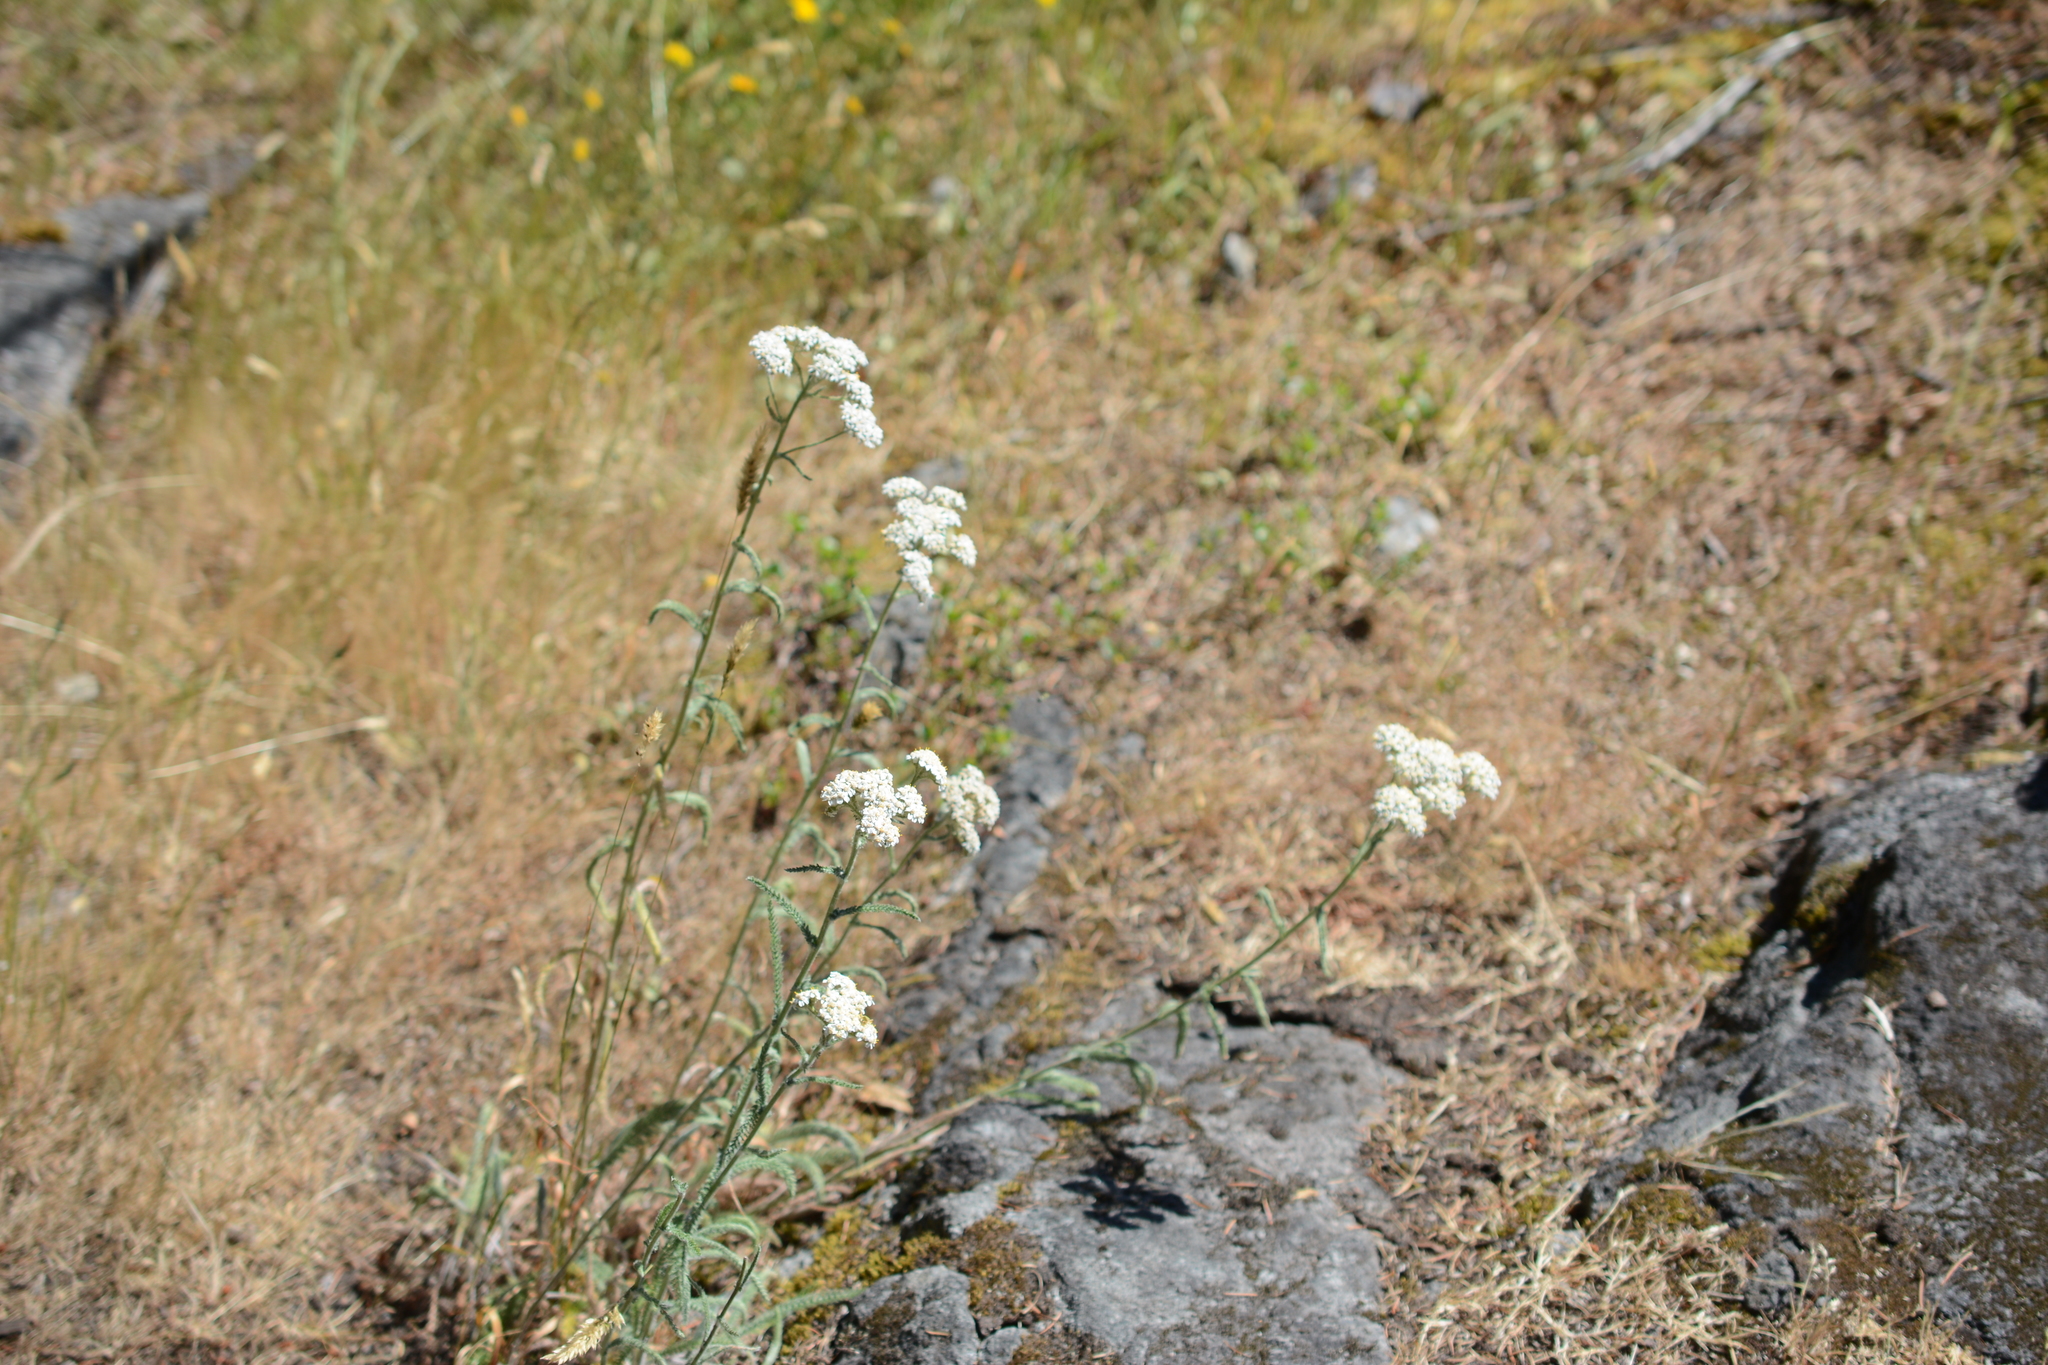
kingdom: Plantae
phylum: Tracheophyta
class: Magnoliopsida
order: Asterales
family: Asteraceae
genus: Achillea
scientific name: Achillea millefolium
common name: Yarrow
